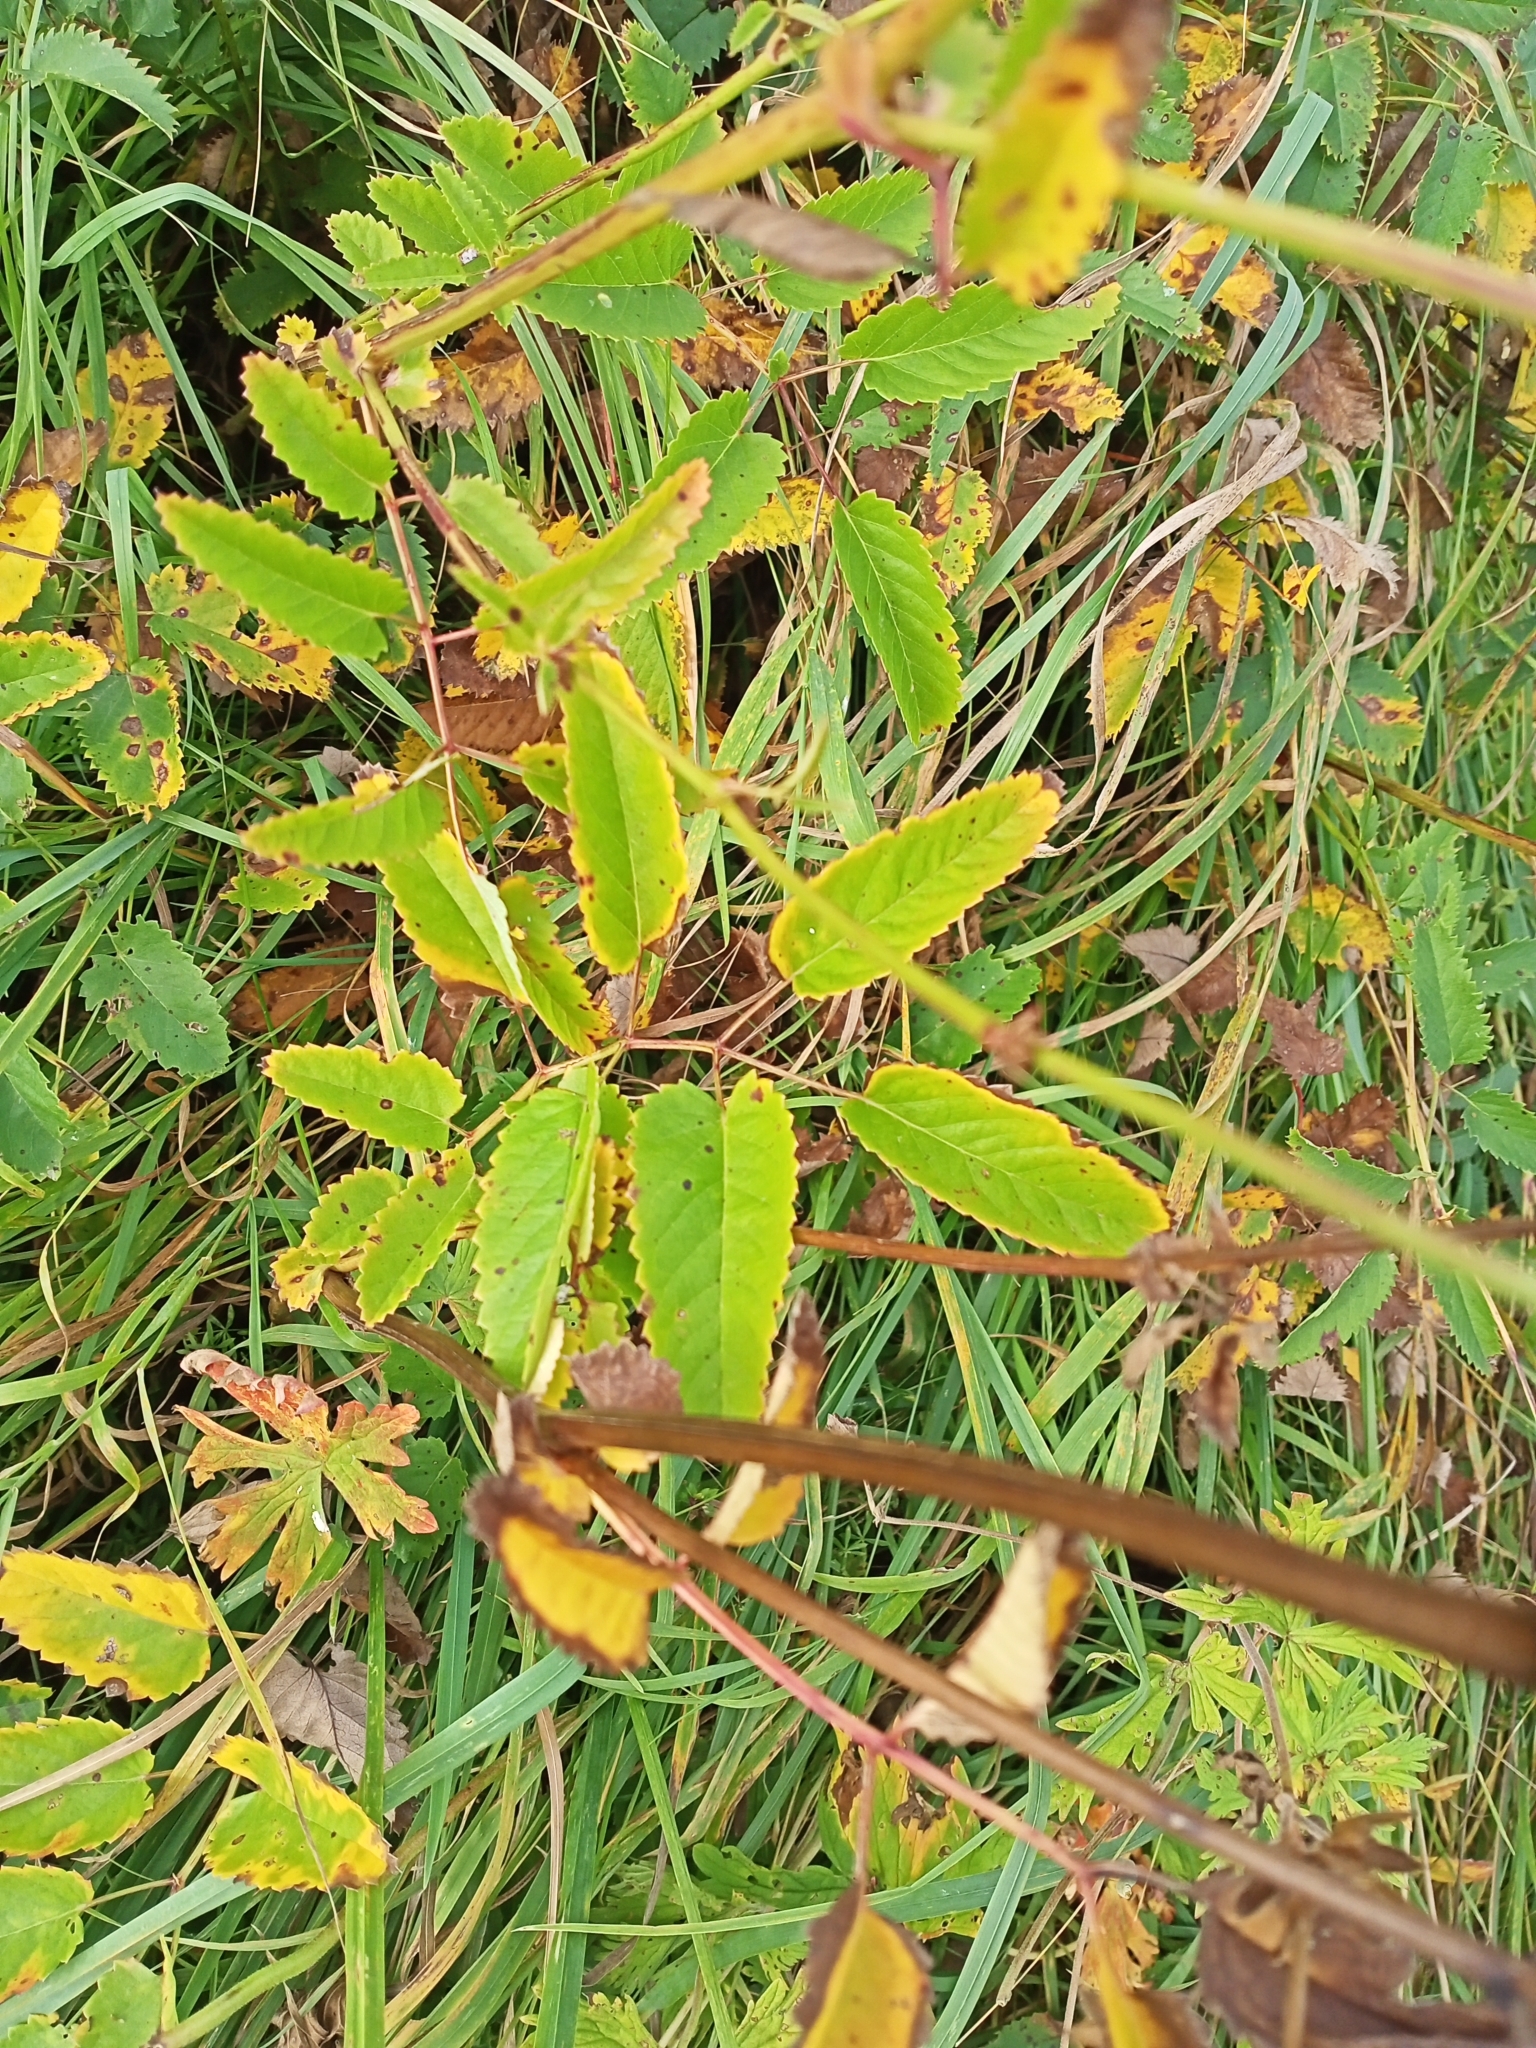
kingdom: Plantae
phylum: Tracheophyta
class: Magnoliopsida
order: Rosales
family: Rosaceae
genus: Sanguisorba
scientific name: Sanguisorba officinalis
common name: Great burnet
